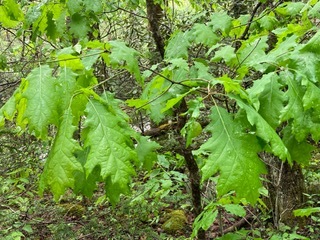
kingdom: Plantae
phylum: Tracheophyta
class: Magnoliopsida
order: Fagales
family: Fagaceae
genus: Quercus
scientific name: Quercus rubra
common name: Red oak
